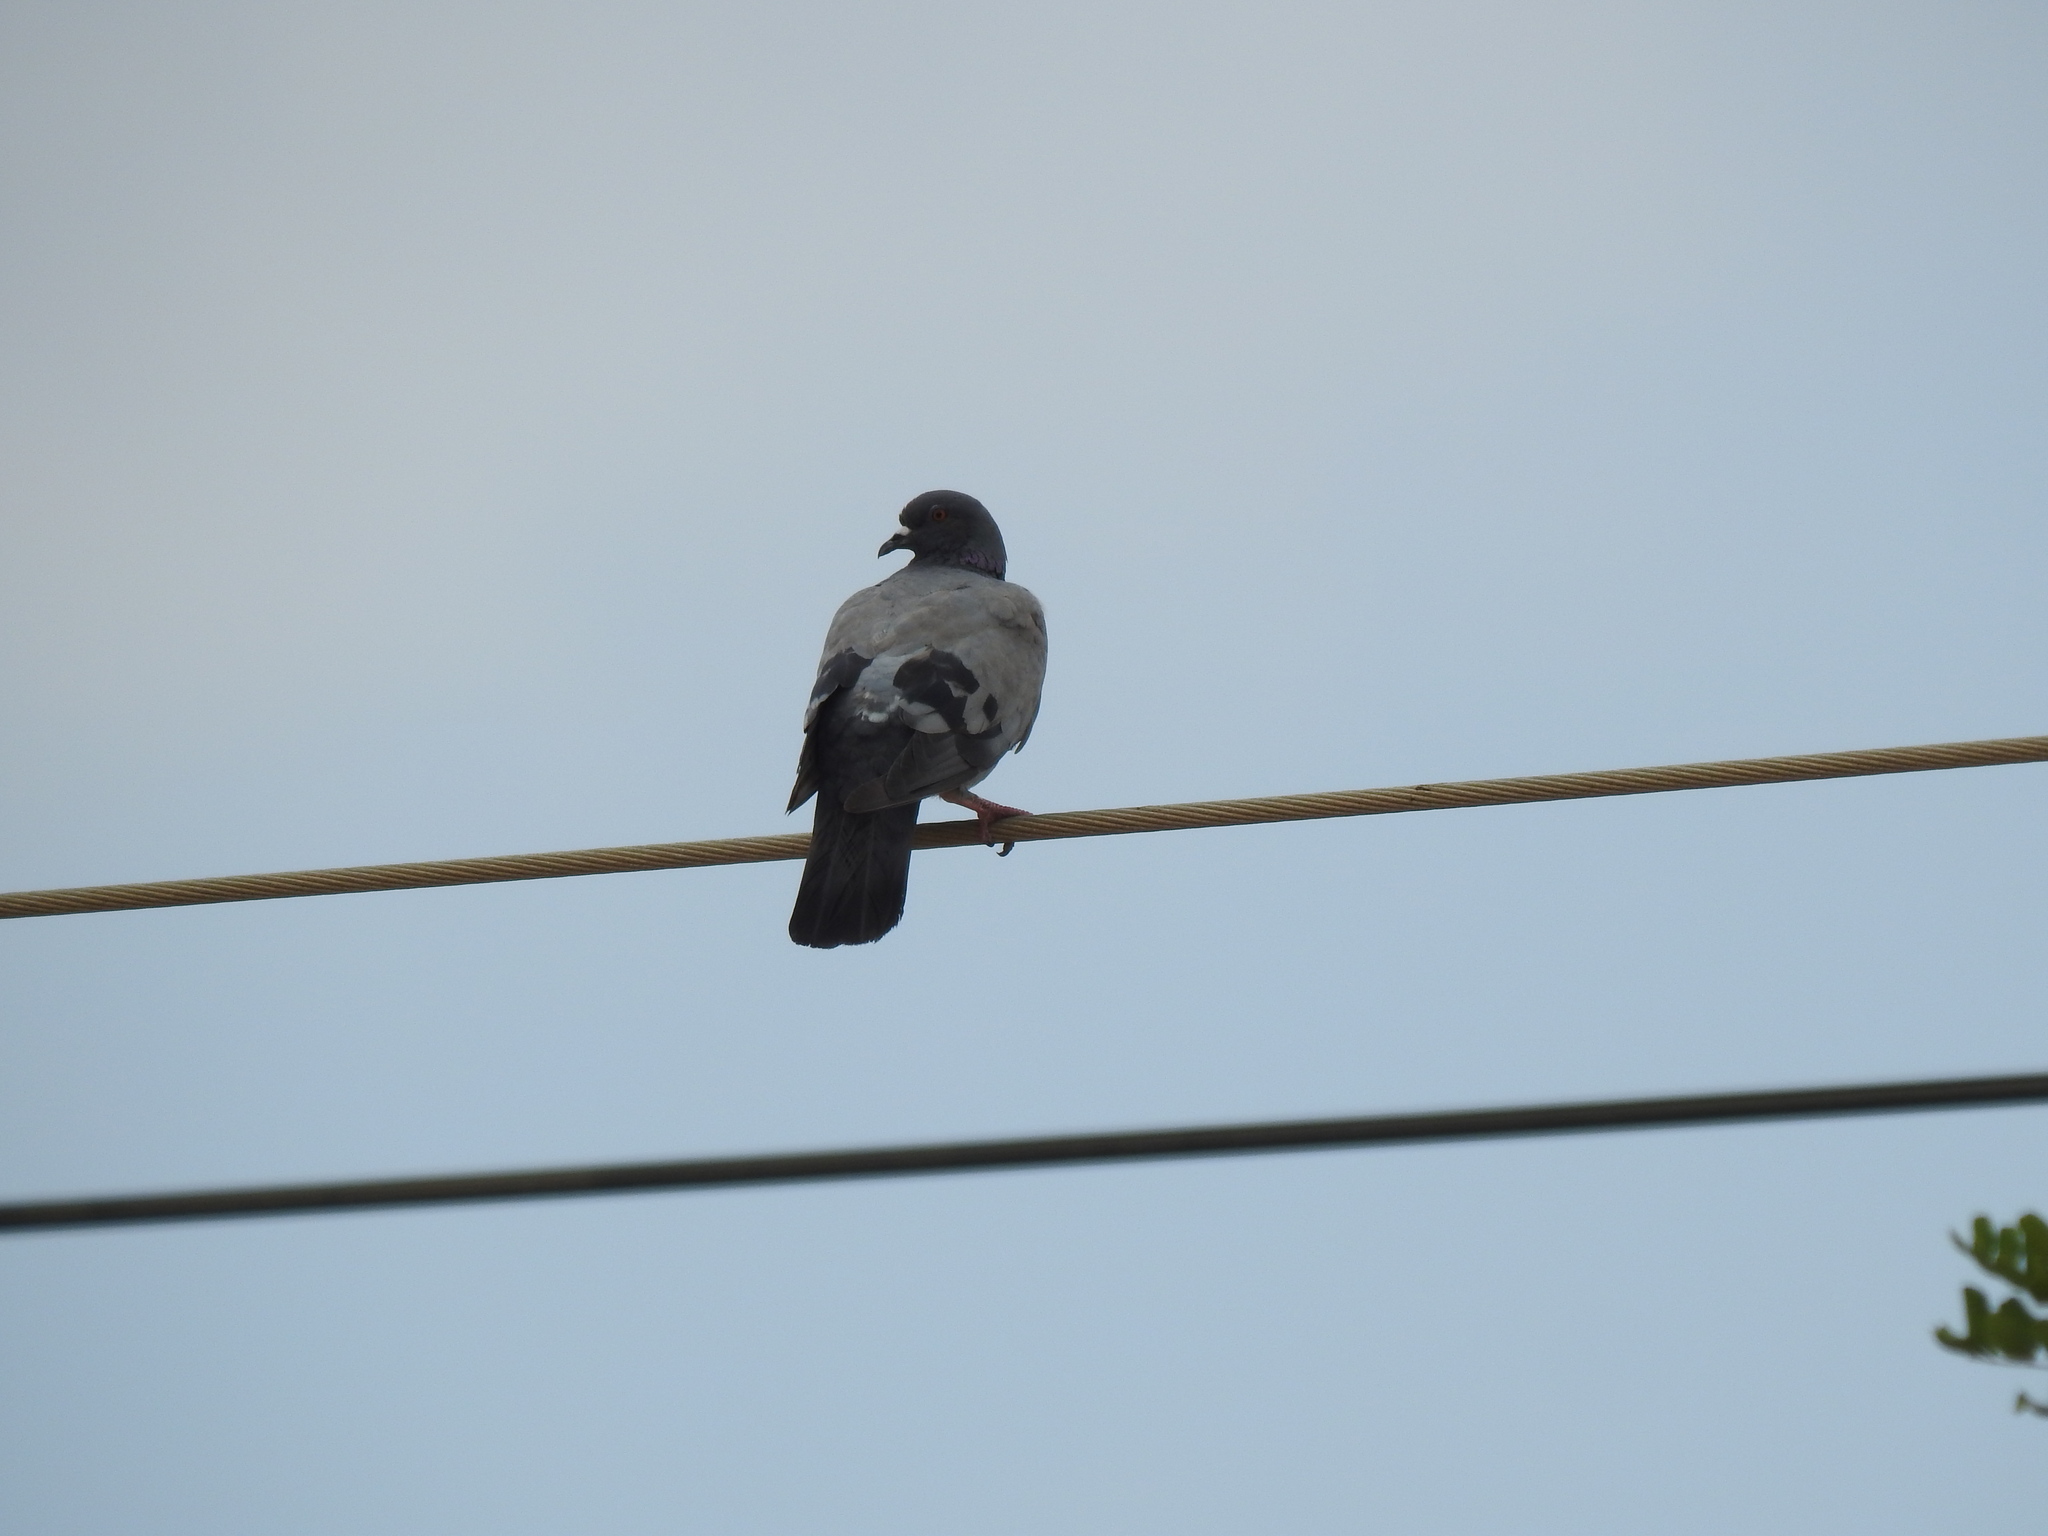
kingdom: Animalia
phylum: Chordata
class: Aves
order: Columbiformes
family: Columbidae
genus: Columba
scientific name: Columba livia
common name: Rock pigeon
